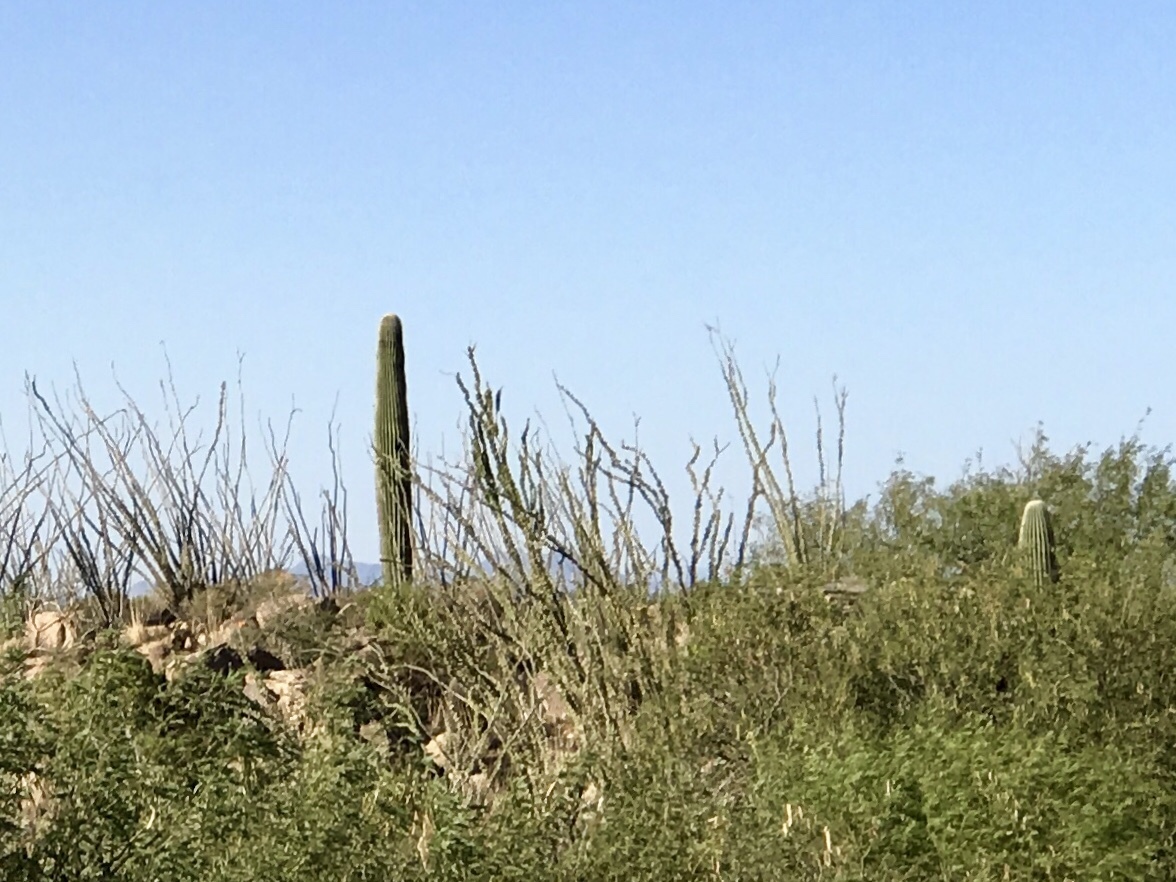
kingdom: Plantae
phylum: Tracheophyta
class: Magnoliopsida
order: Ericales
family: Fouquieriaceae
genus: Fouquieria
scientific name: Fouquieria splendens
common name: Vine-cactus
